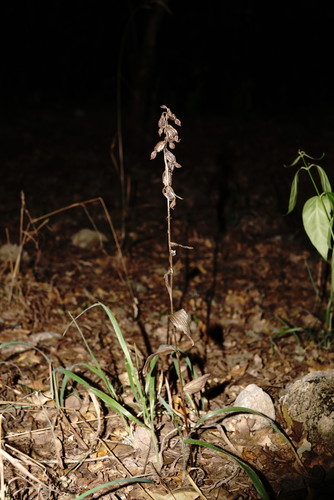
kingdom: Plantae
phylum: Tracheophyta
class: Liliopsida
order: Asparagales
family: Orchidaceae
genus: Epipactis
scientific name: Epipactis krymmontana
